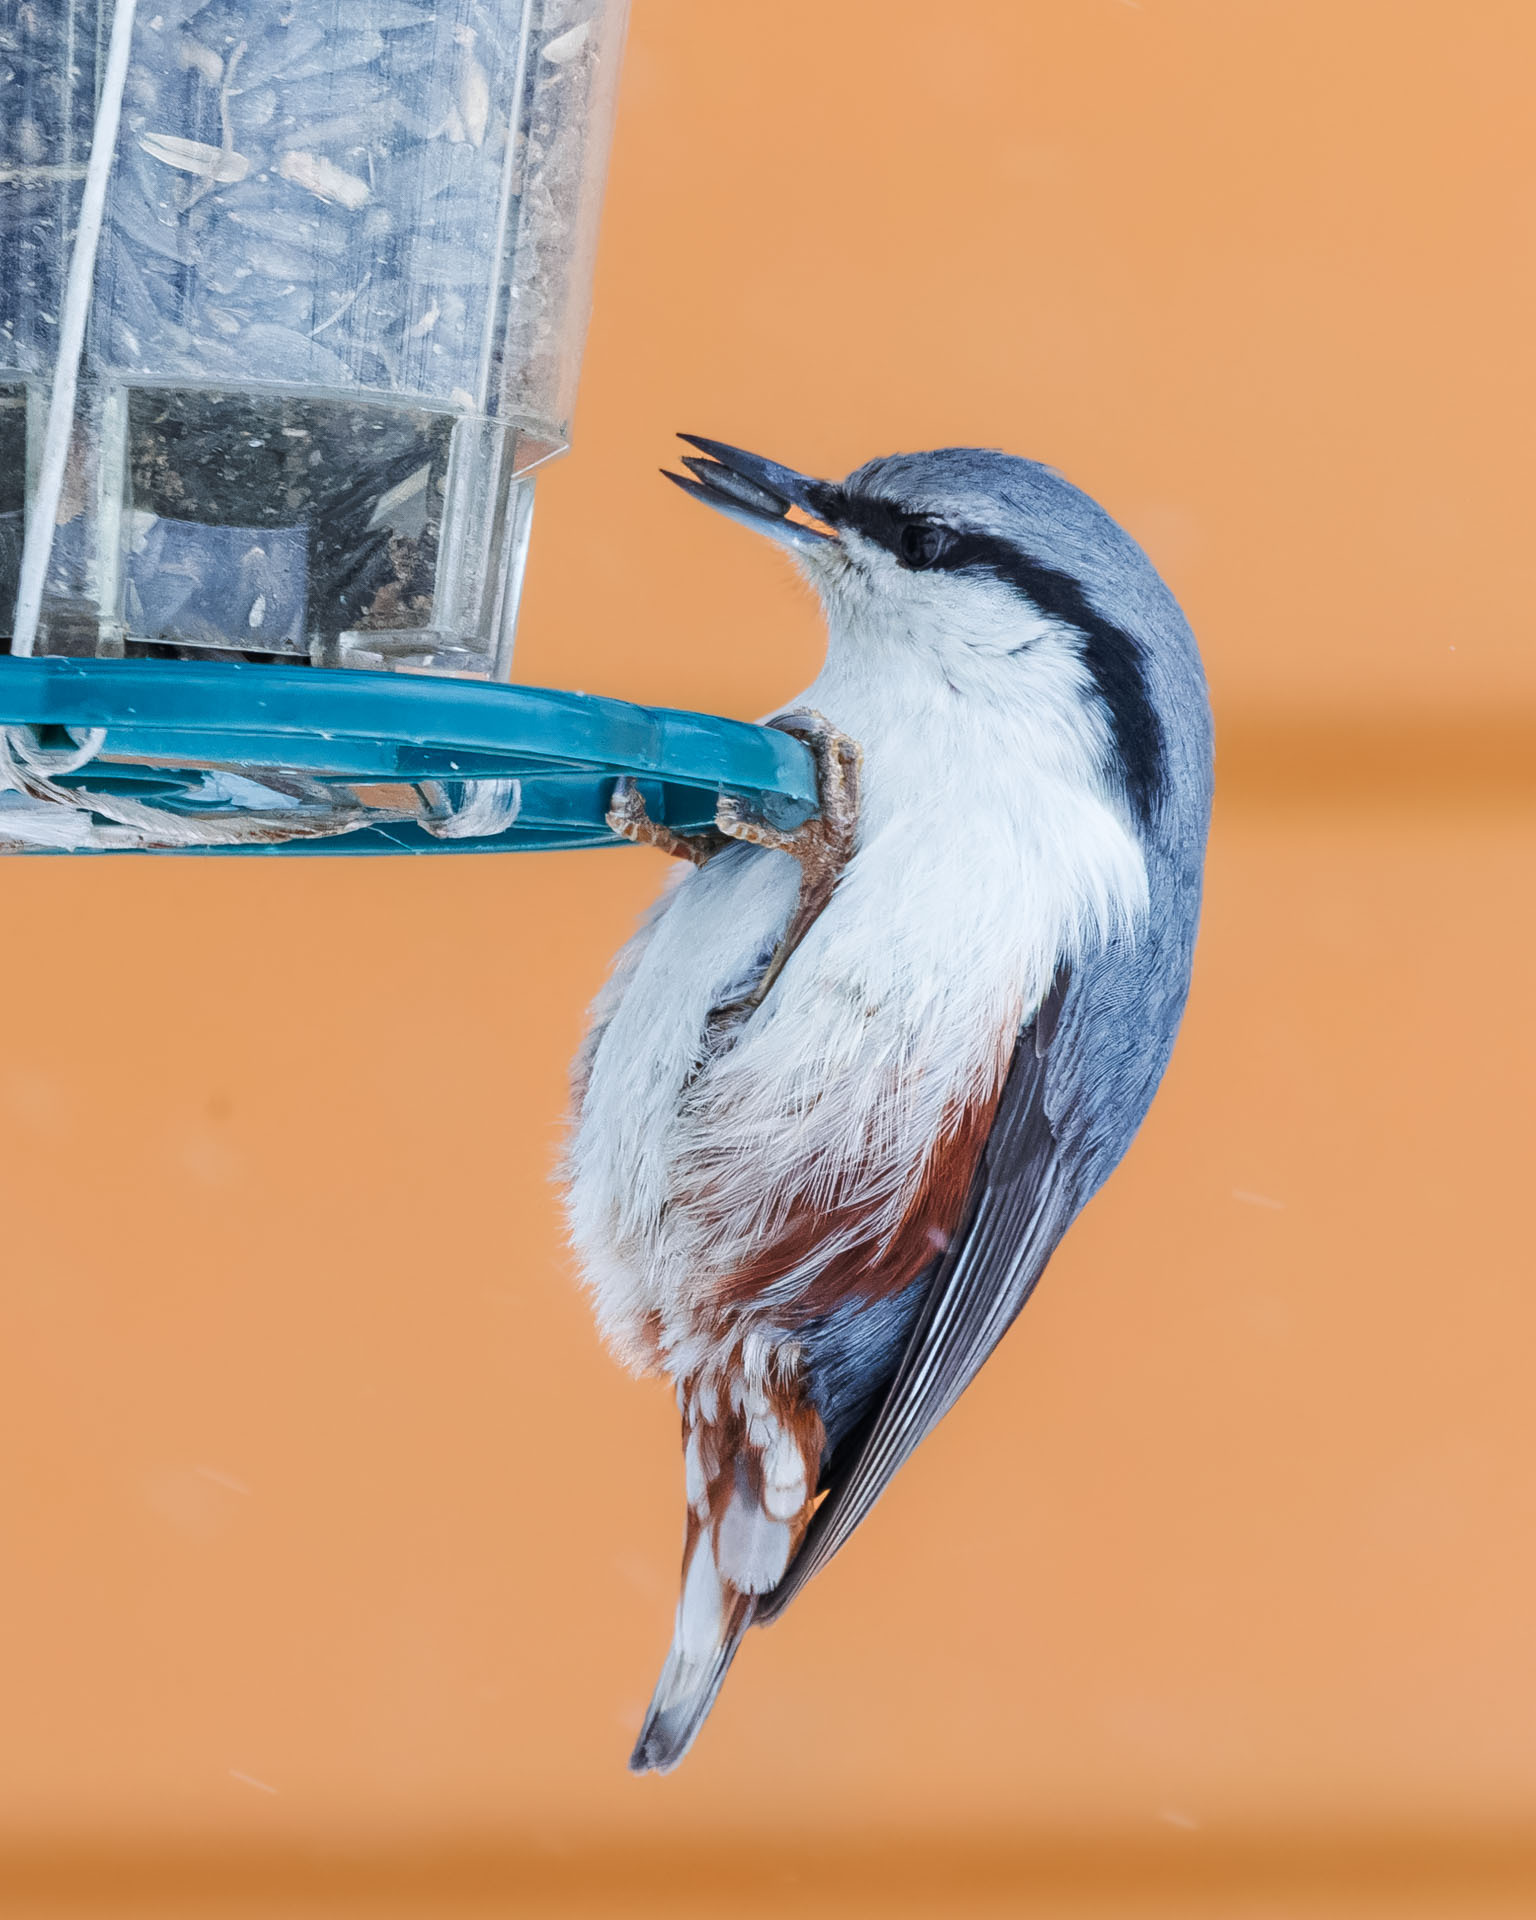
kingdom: Animalia
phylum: Chordata
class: Aves
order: Passeriformes
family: Sittidae
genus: Sitta
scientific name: Sitta europaea
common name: Eurasian nuthatch
